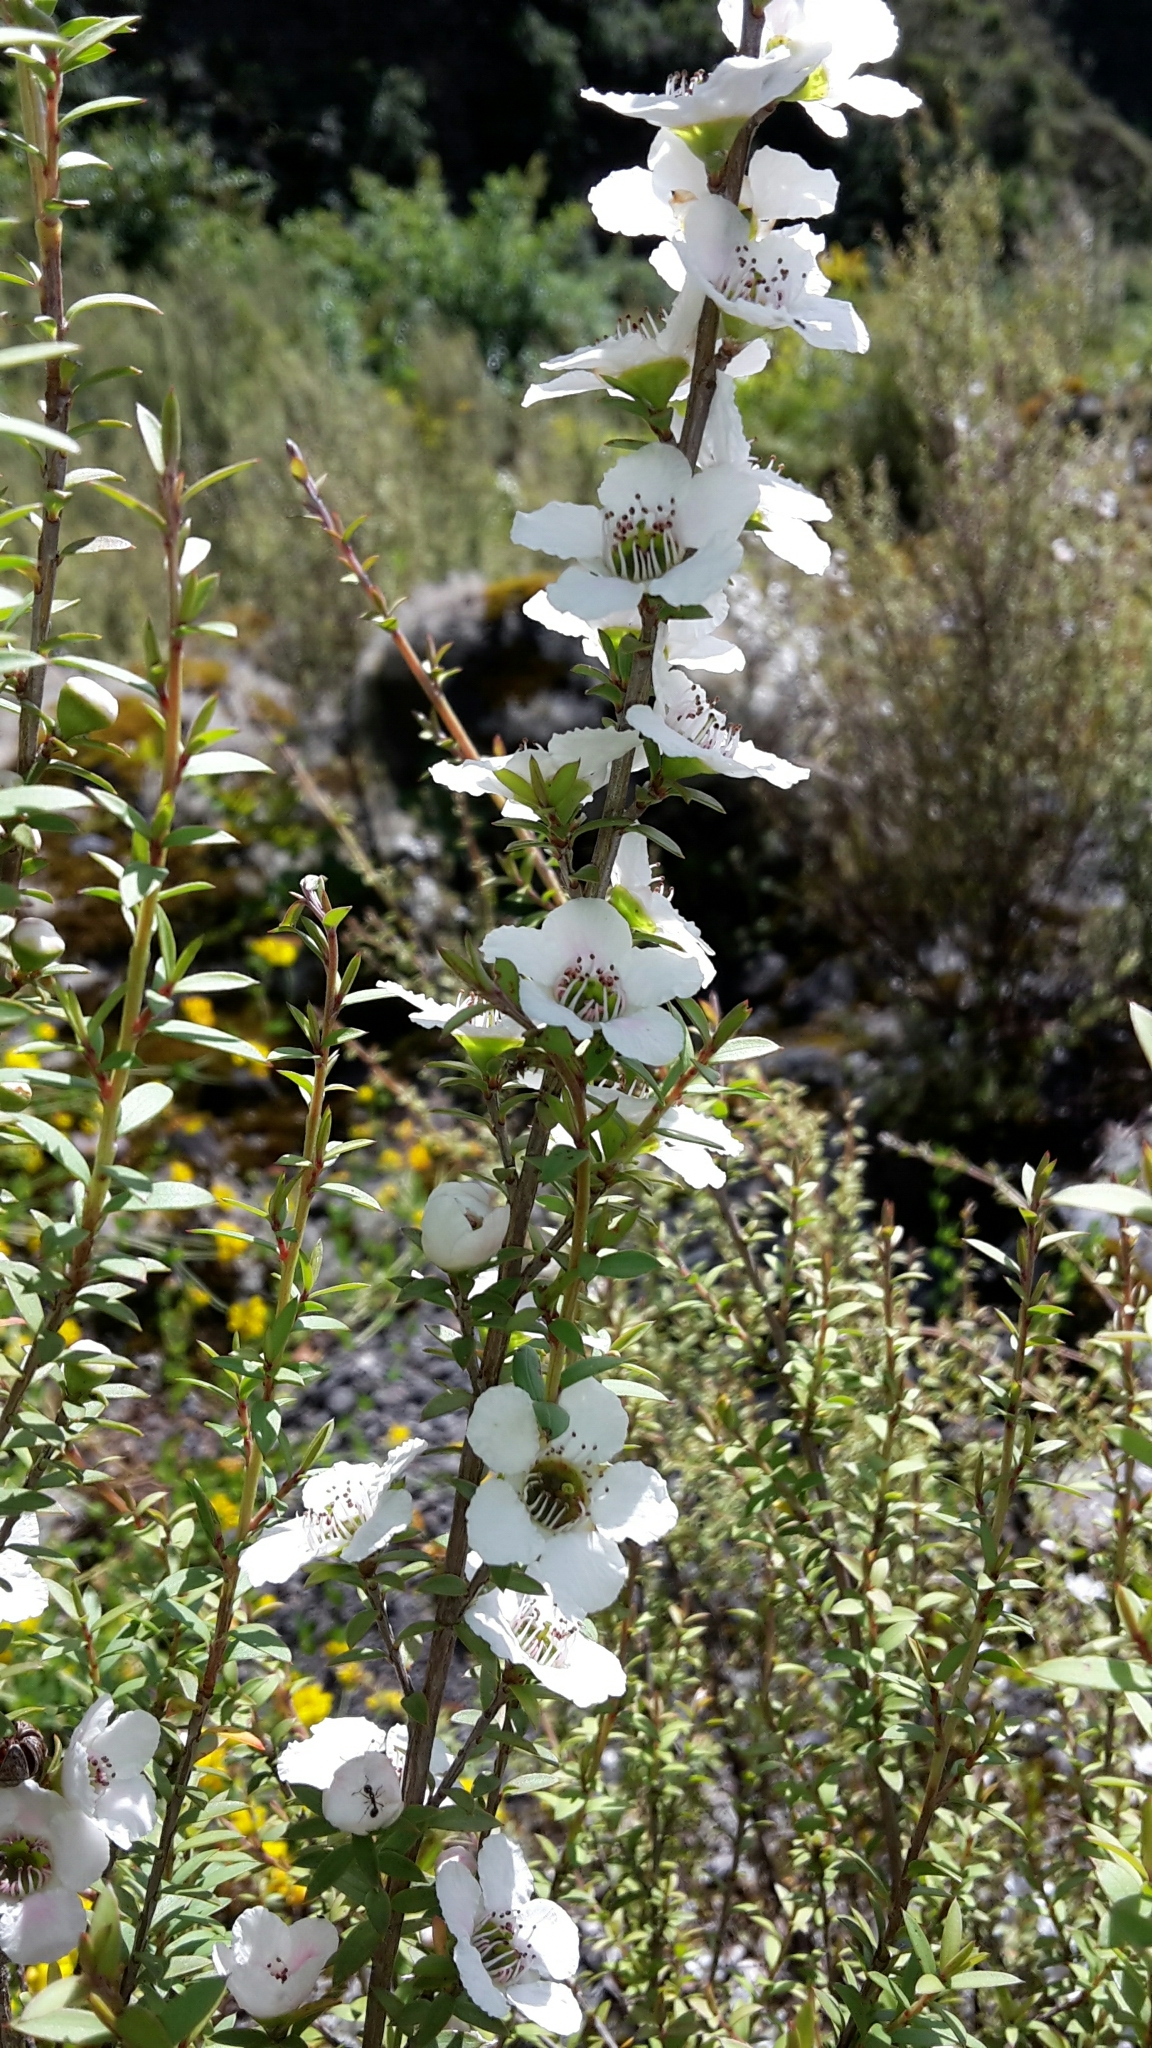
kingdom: Plantae
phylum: Tracheophyta
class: Magnoliopsida
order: Myrtales
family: Myrtaceae
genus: Leptospermum
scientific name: Leptospermum scoparium
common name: Broom tea-tree
